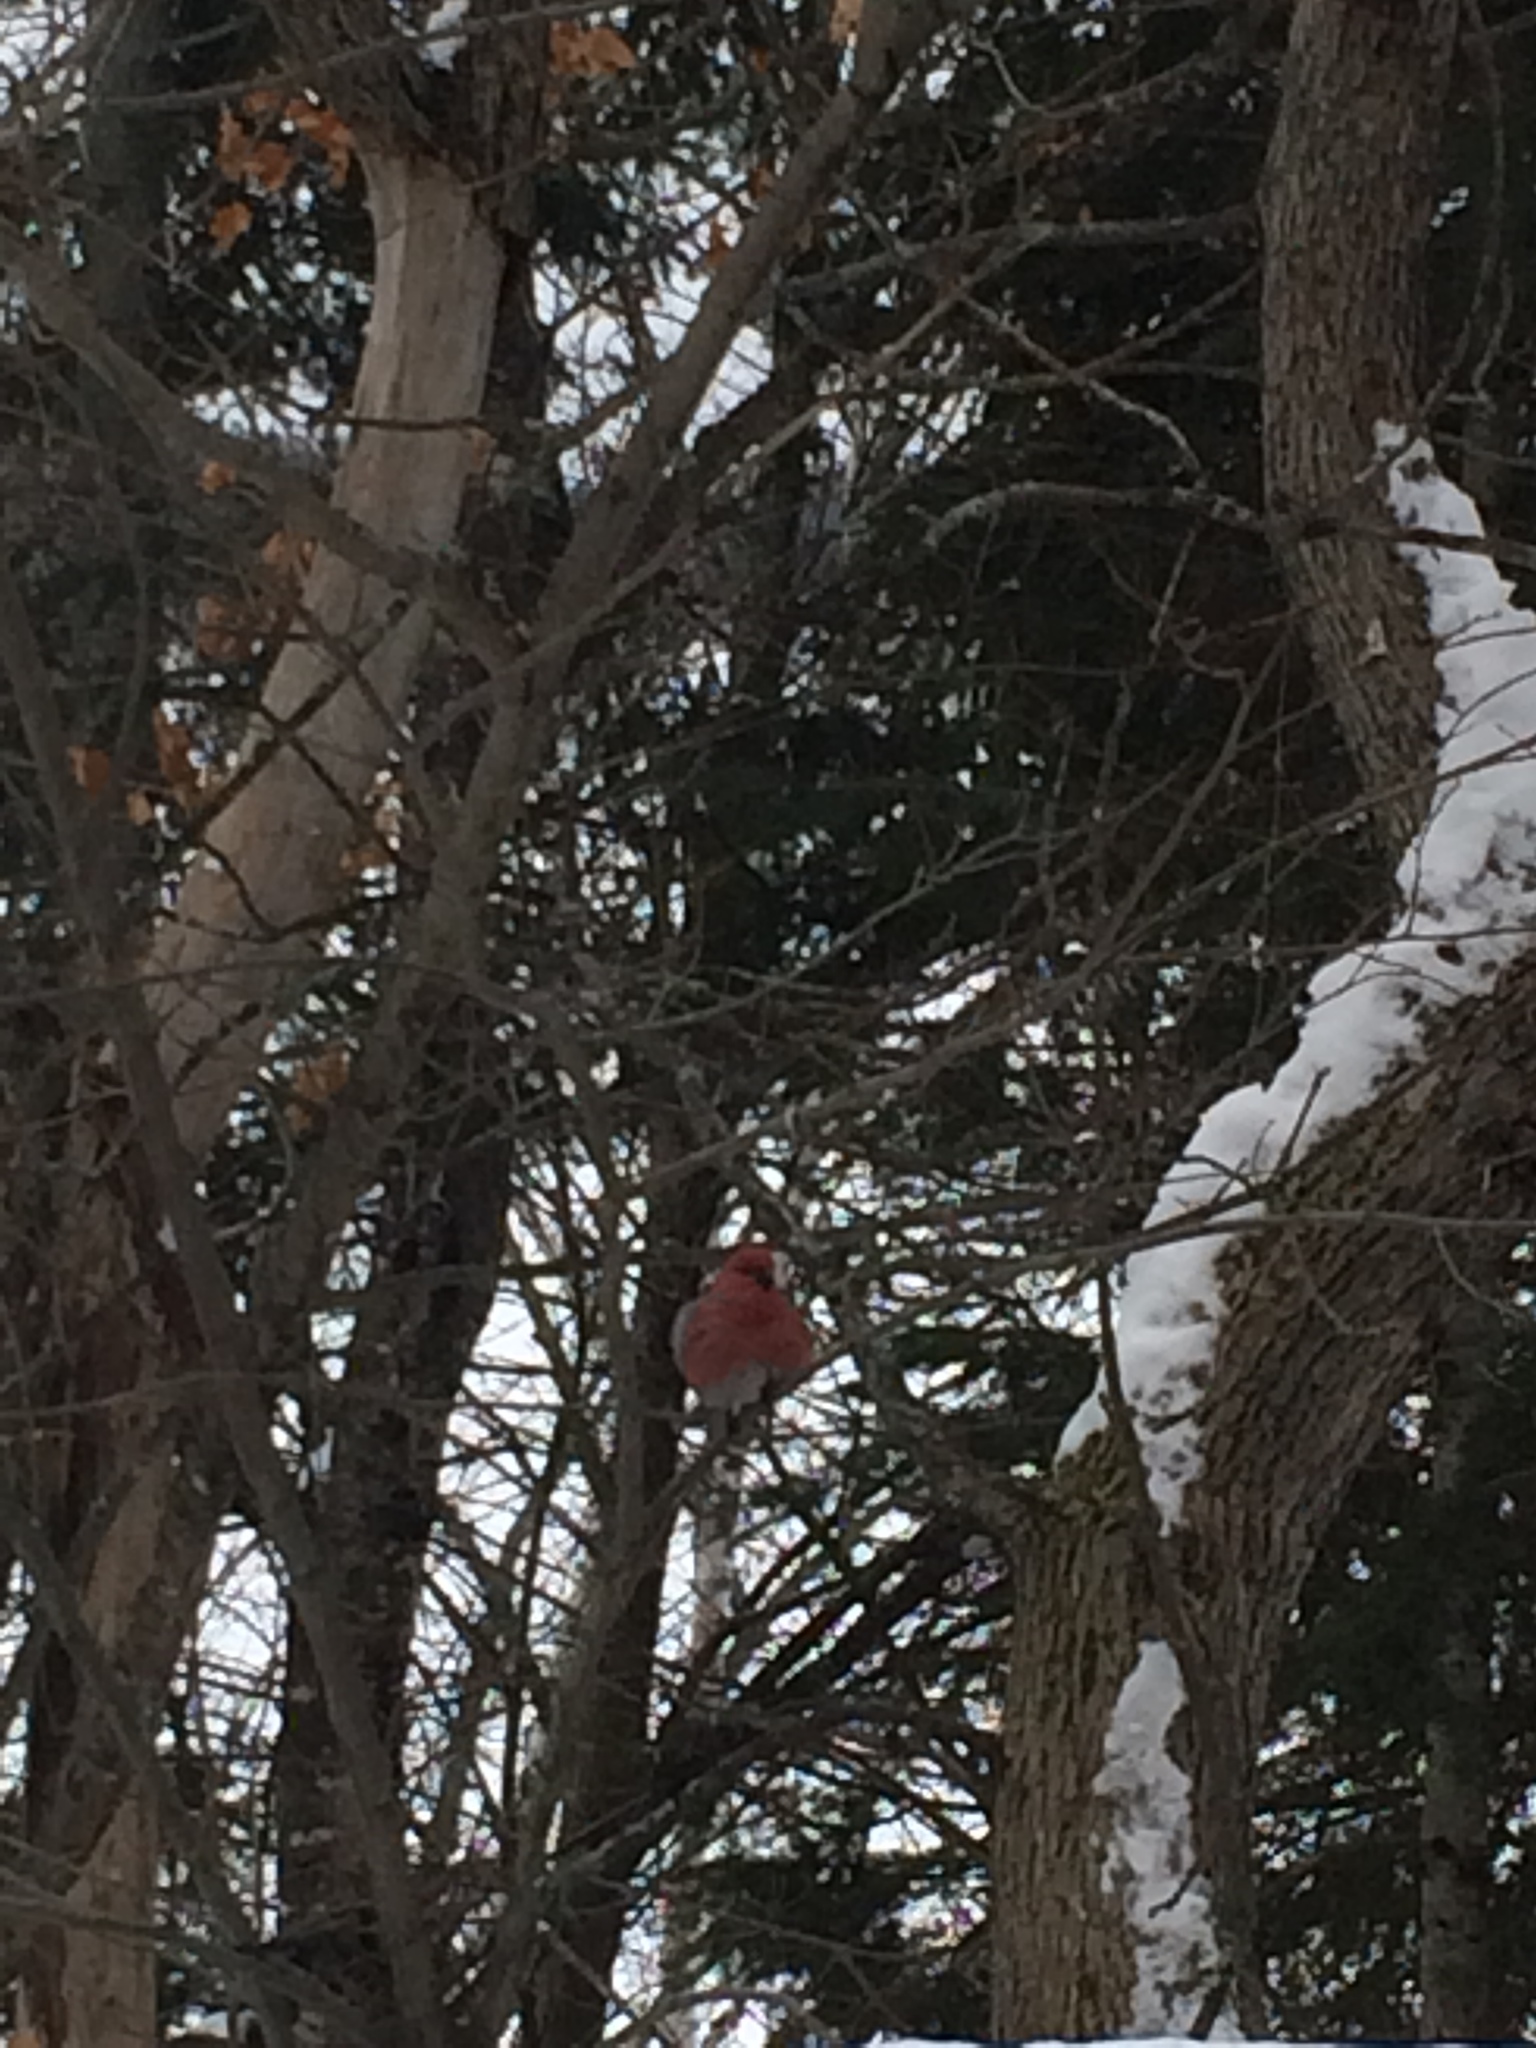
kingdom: Animalia
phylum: Chordata
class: Aves
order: Passeriformes
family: Fringillidae
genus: Loxia
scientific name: Loxia leucoptera
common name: Two-barred crossbill
